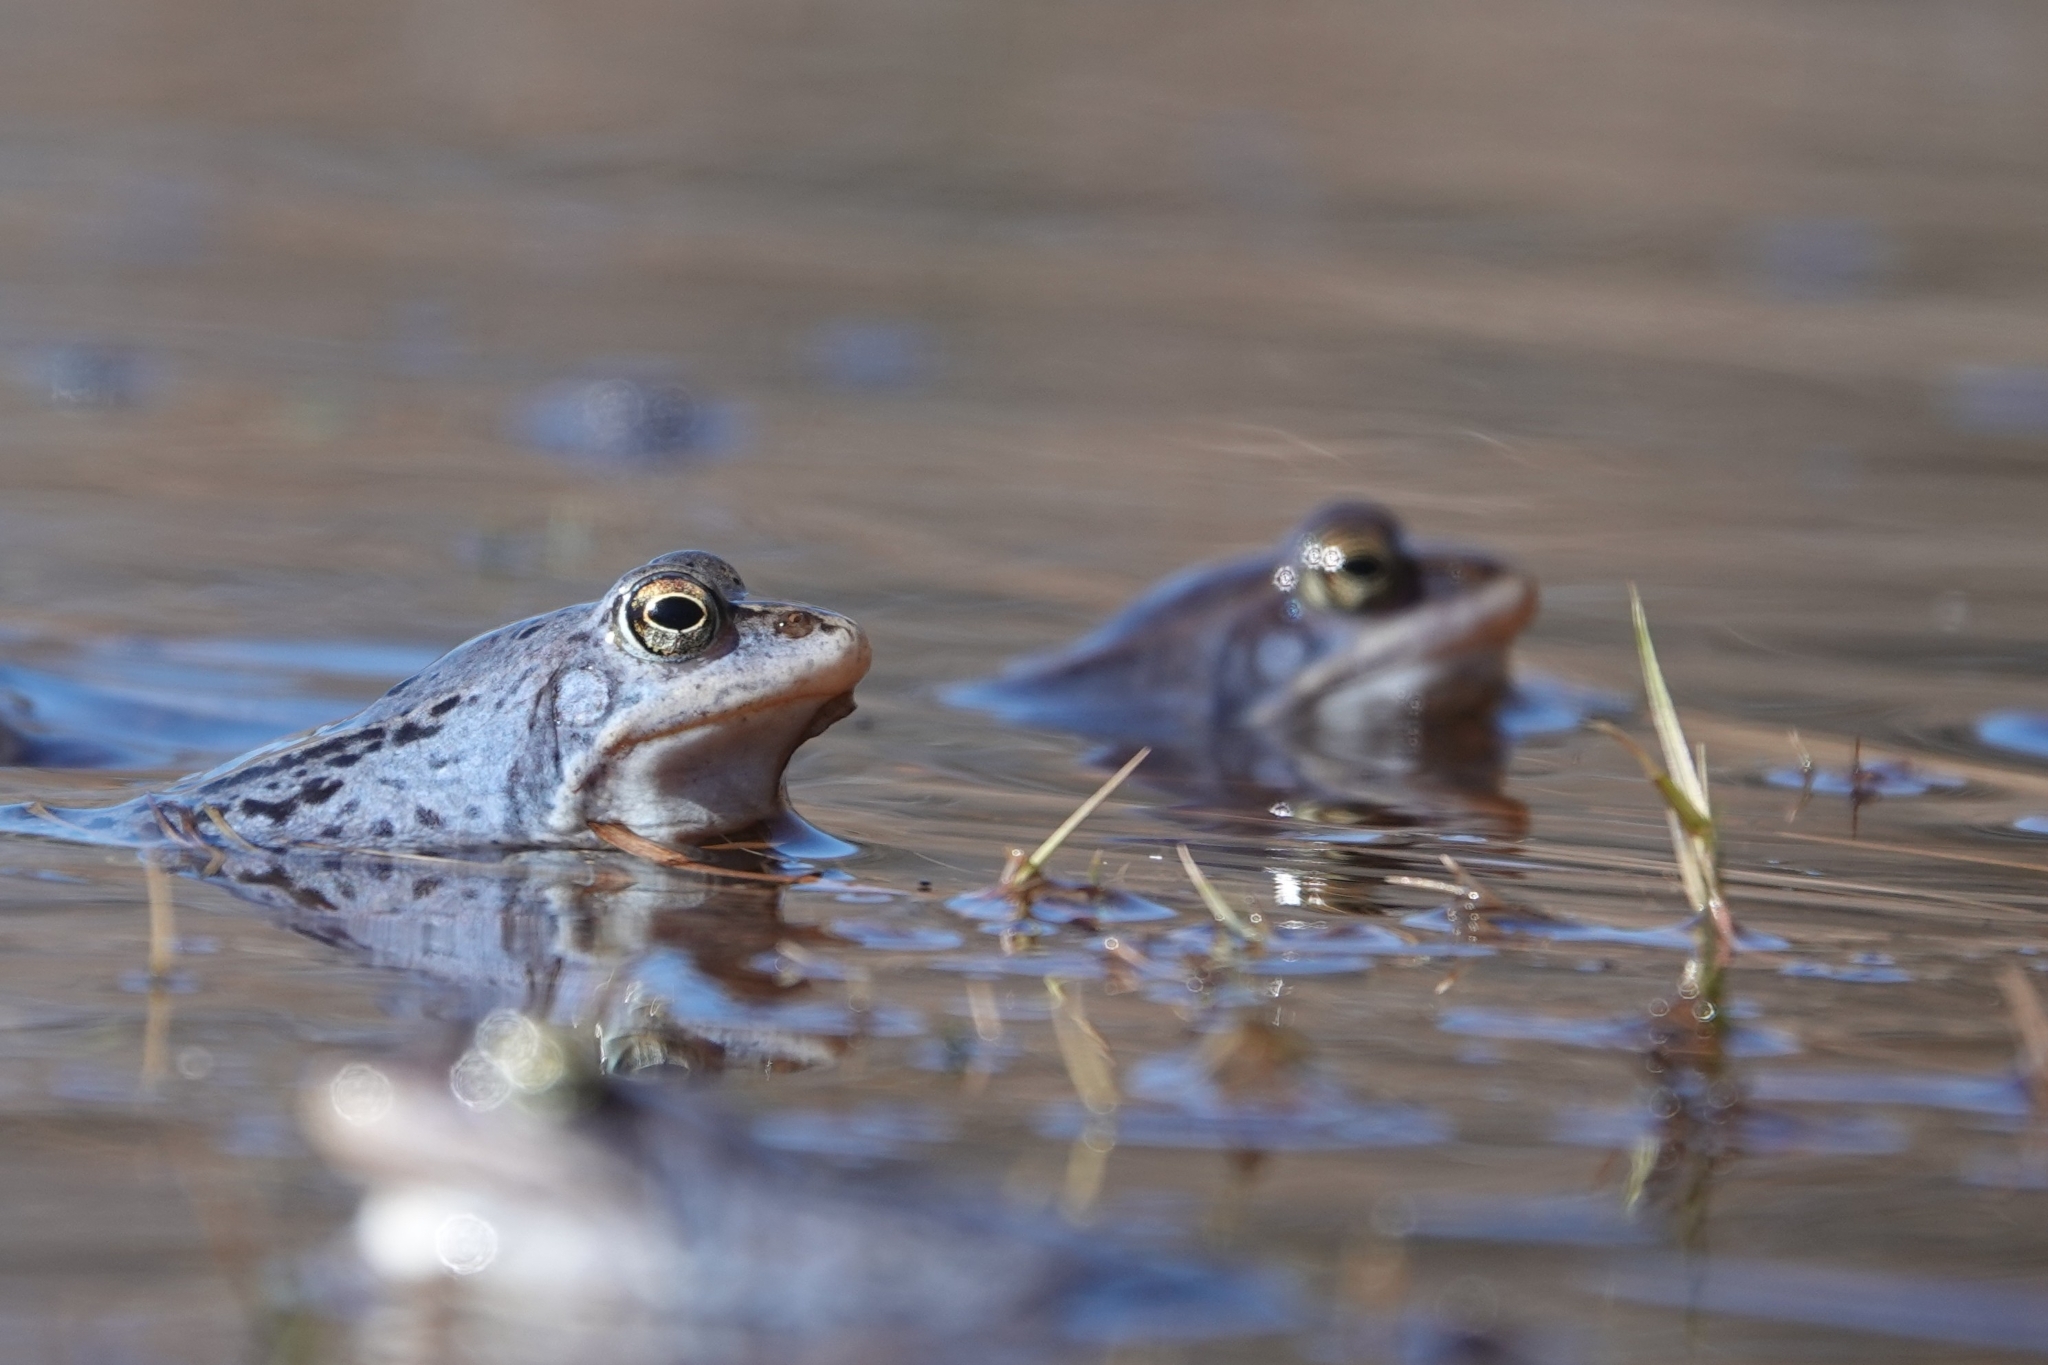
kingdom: Animalia
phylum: Chordata
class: Amphibia
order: Anura
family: Ranidae
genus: Rana
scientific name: Rana arvalis
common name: Moor frog
